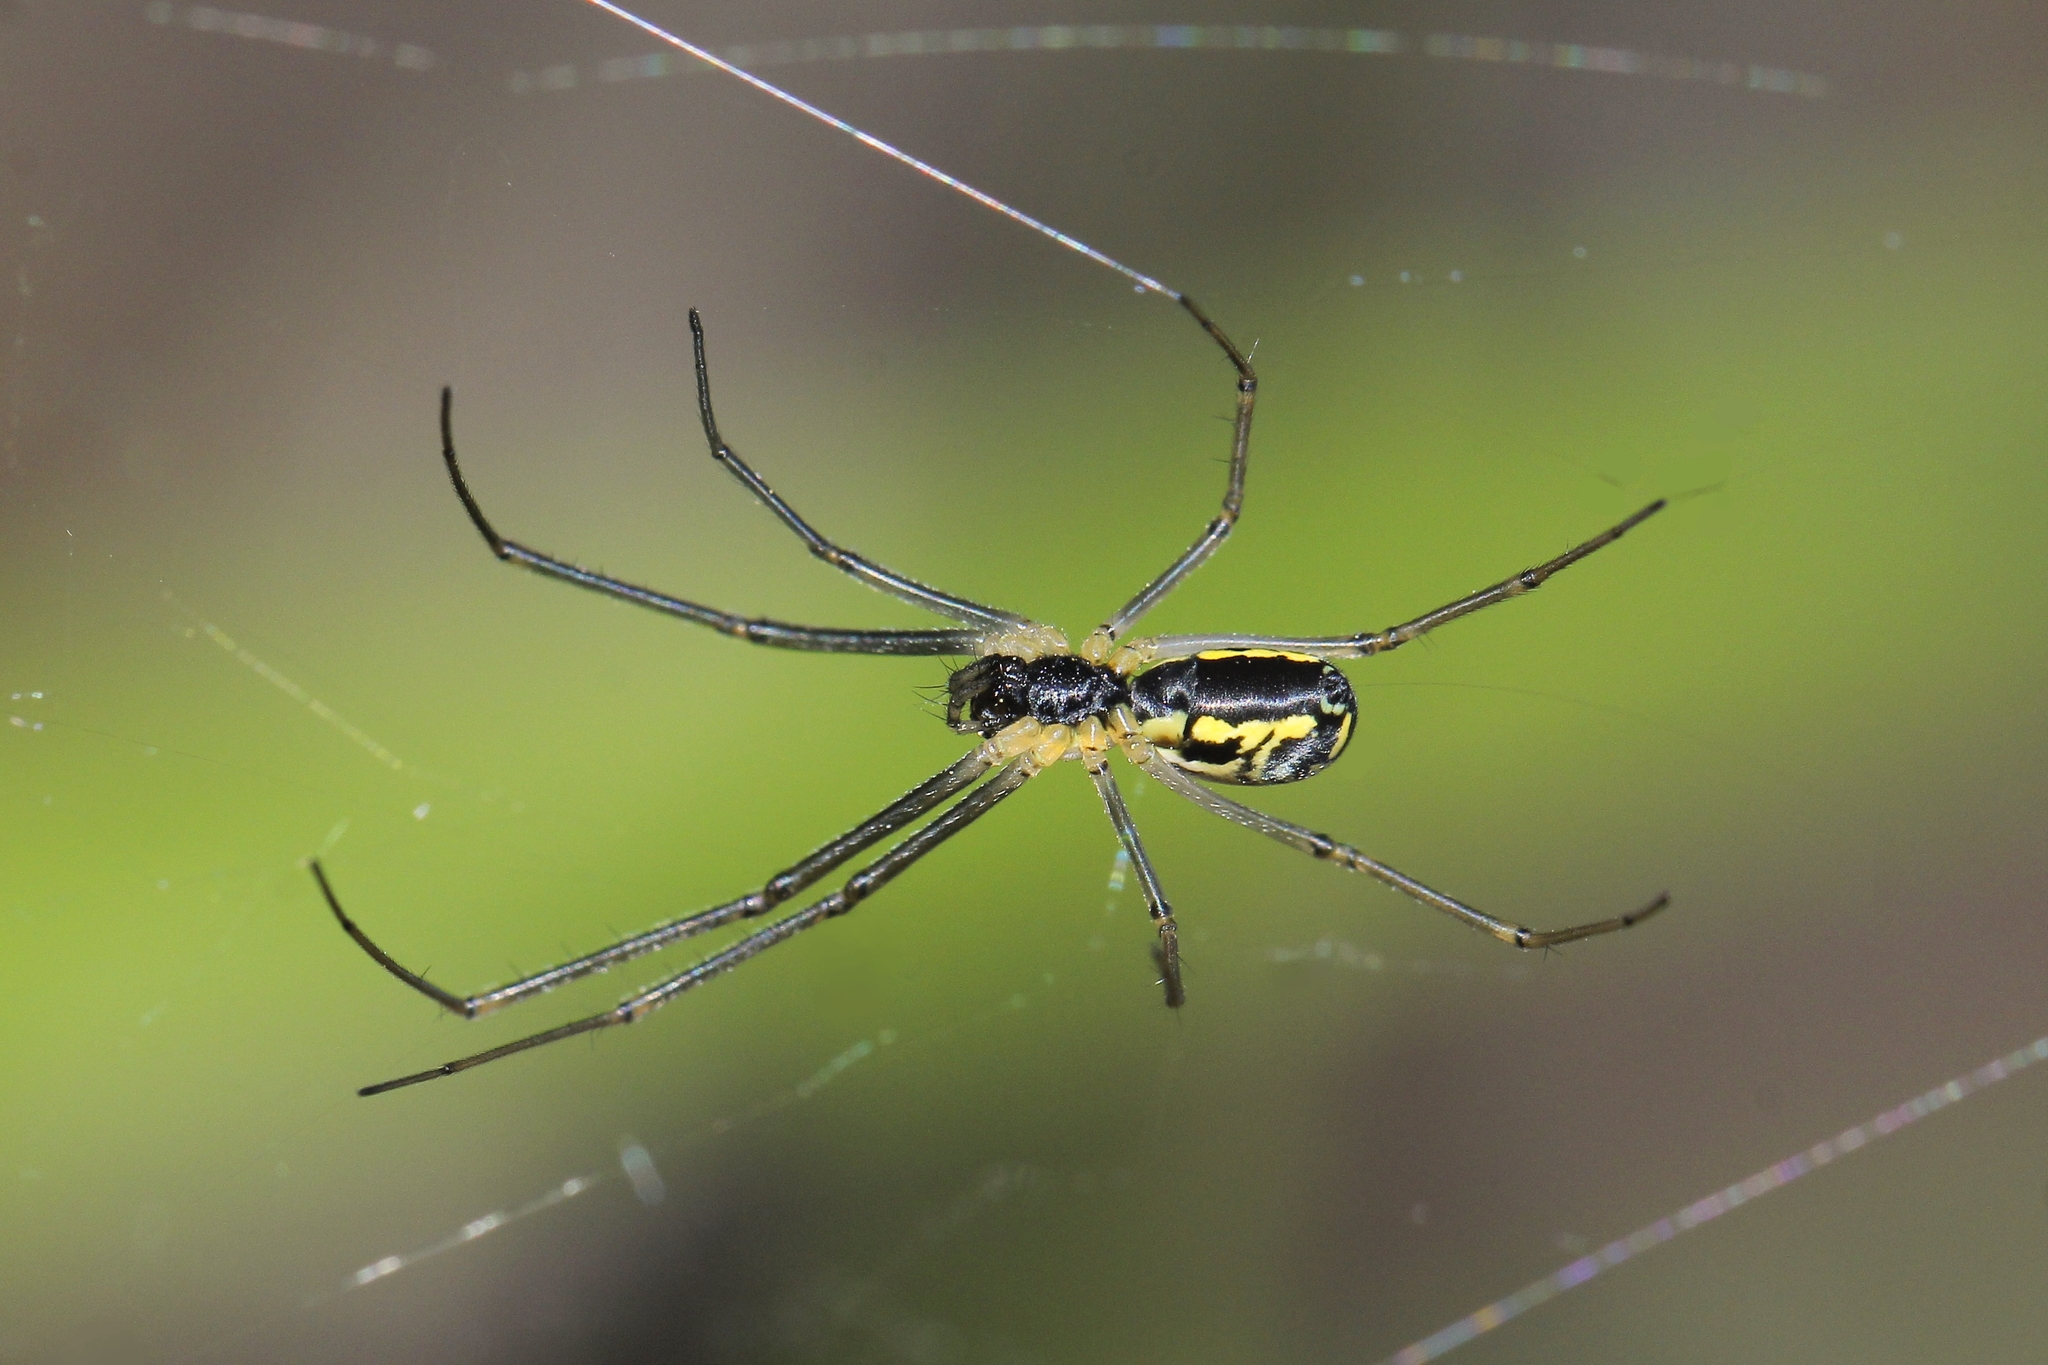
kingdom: Animalia
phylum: Arthropoda
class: Arachnida
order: Araneae
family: Linyphiidae
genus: Neriene
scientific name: Neriene radiata
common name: Filmy dome spider
